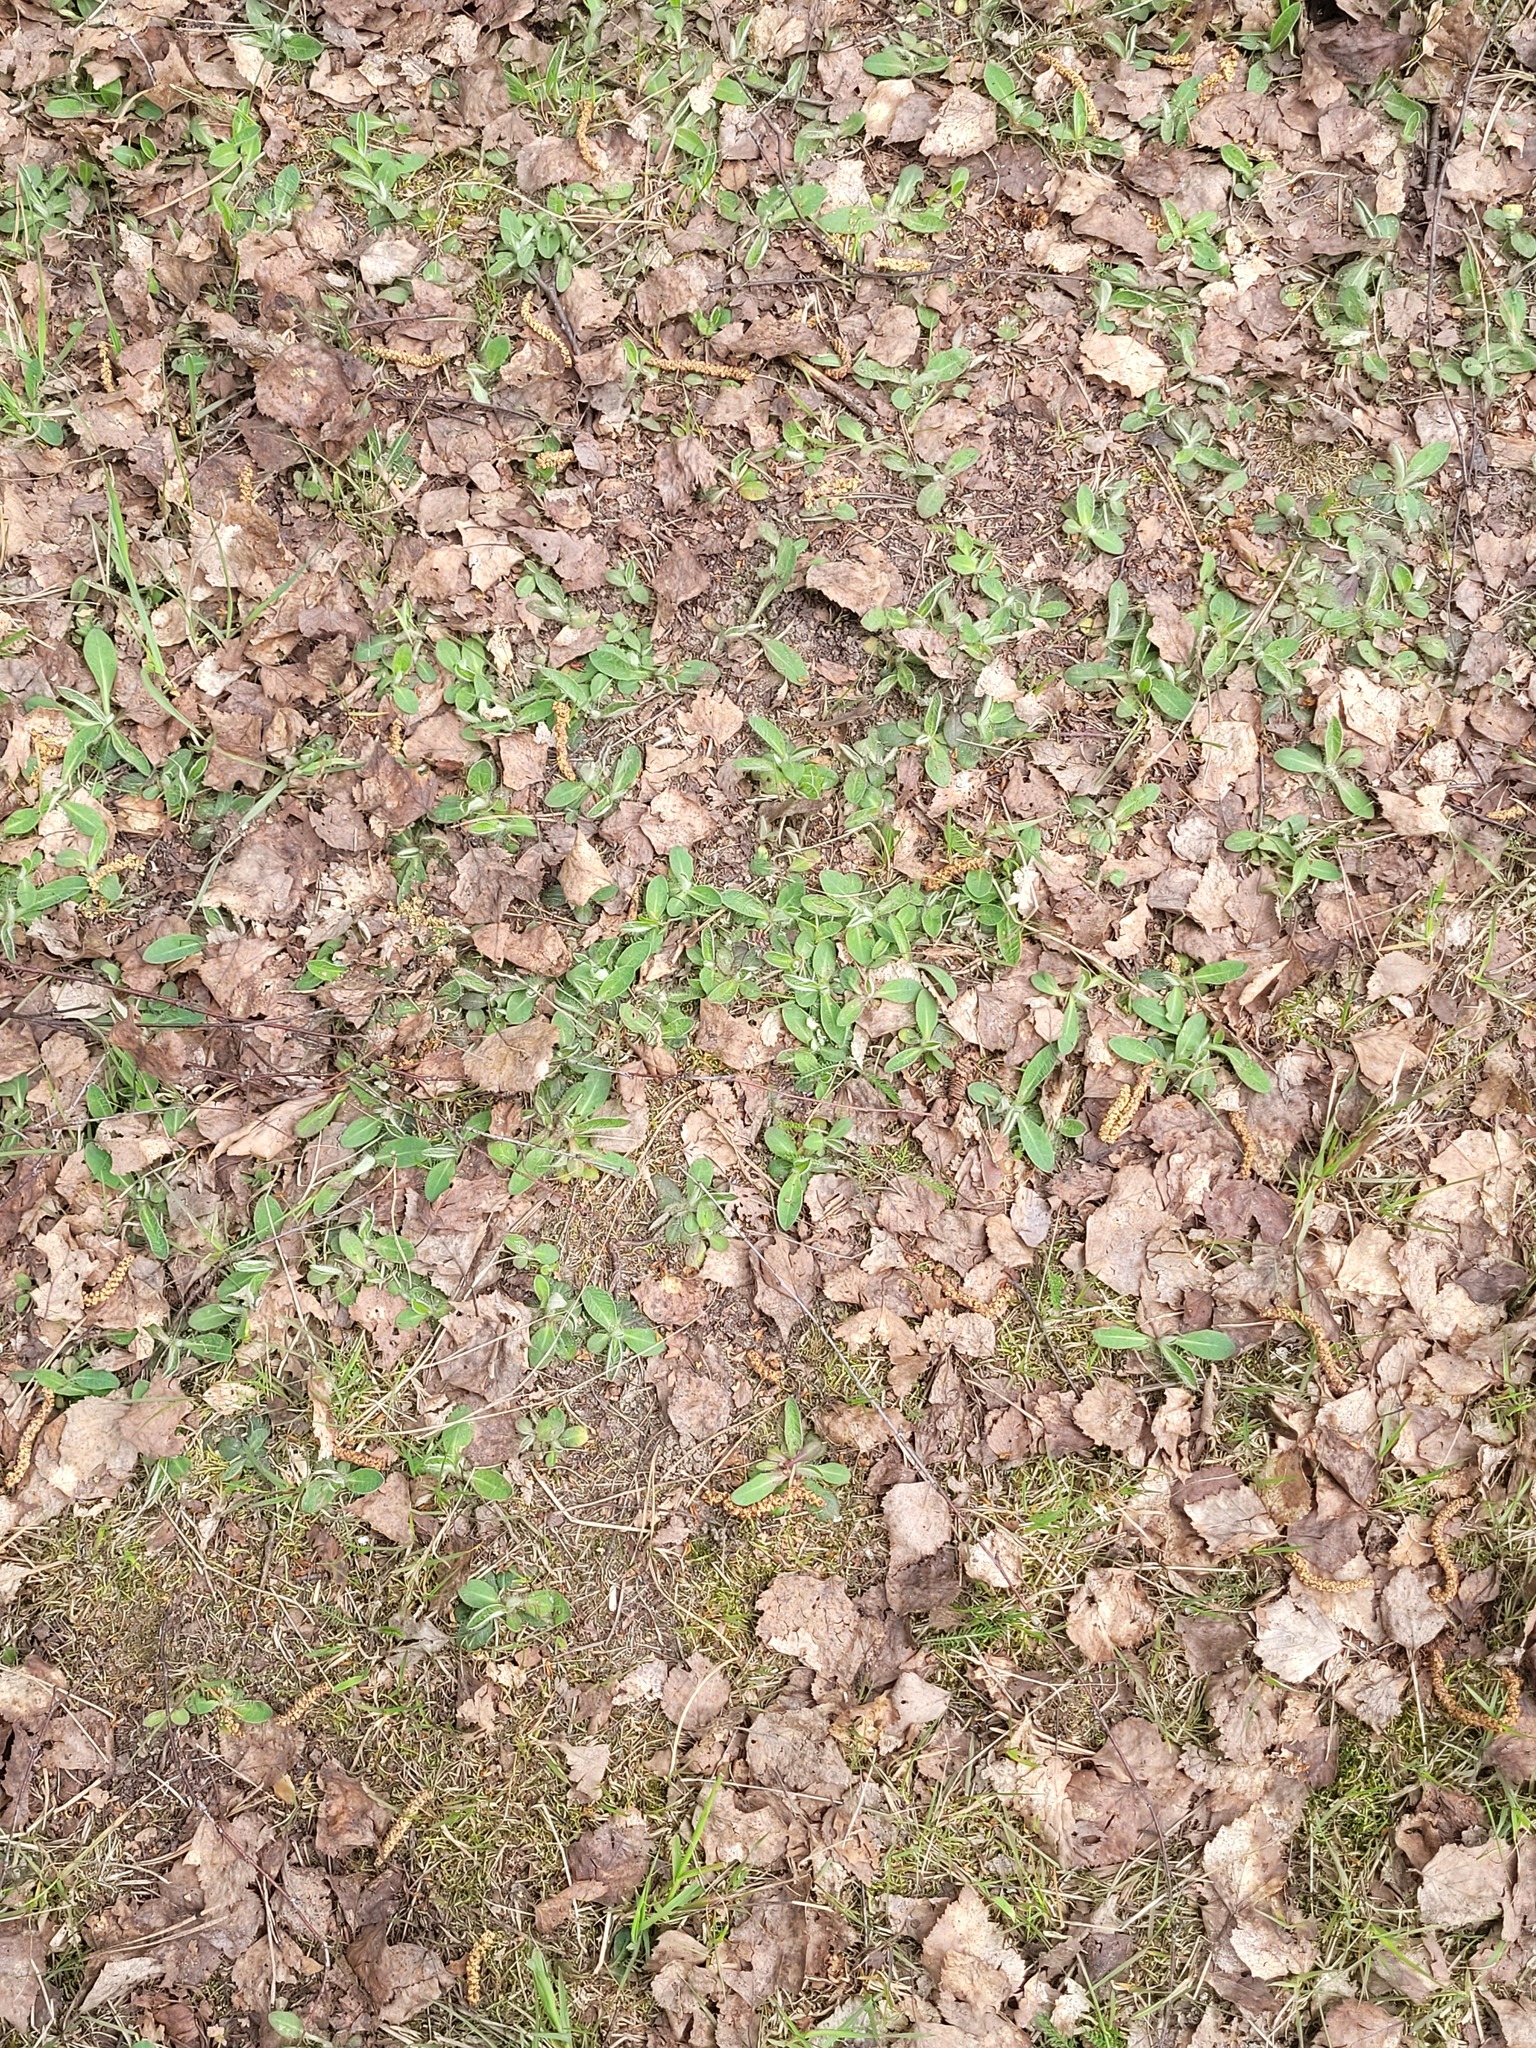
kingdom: Plantae
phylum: Tracheophyta
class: Magnoliopsida
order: Asterales
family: Asteraceae
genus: Pilosella
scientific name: Pilosella officinarum
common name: Mouse-ear hawkweed
